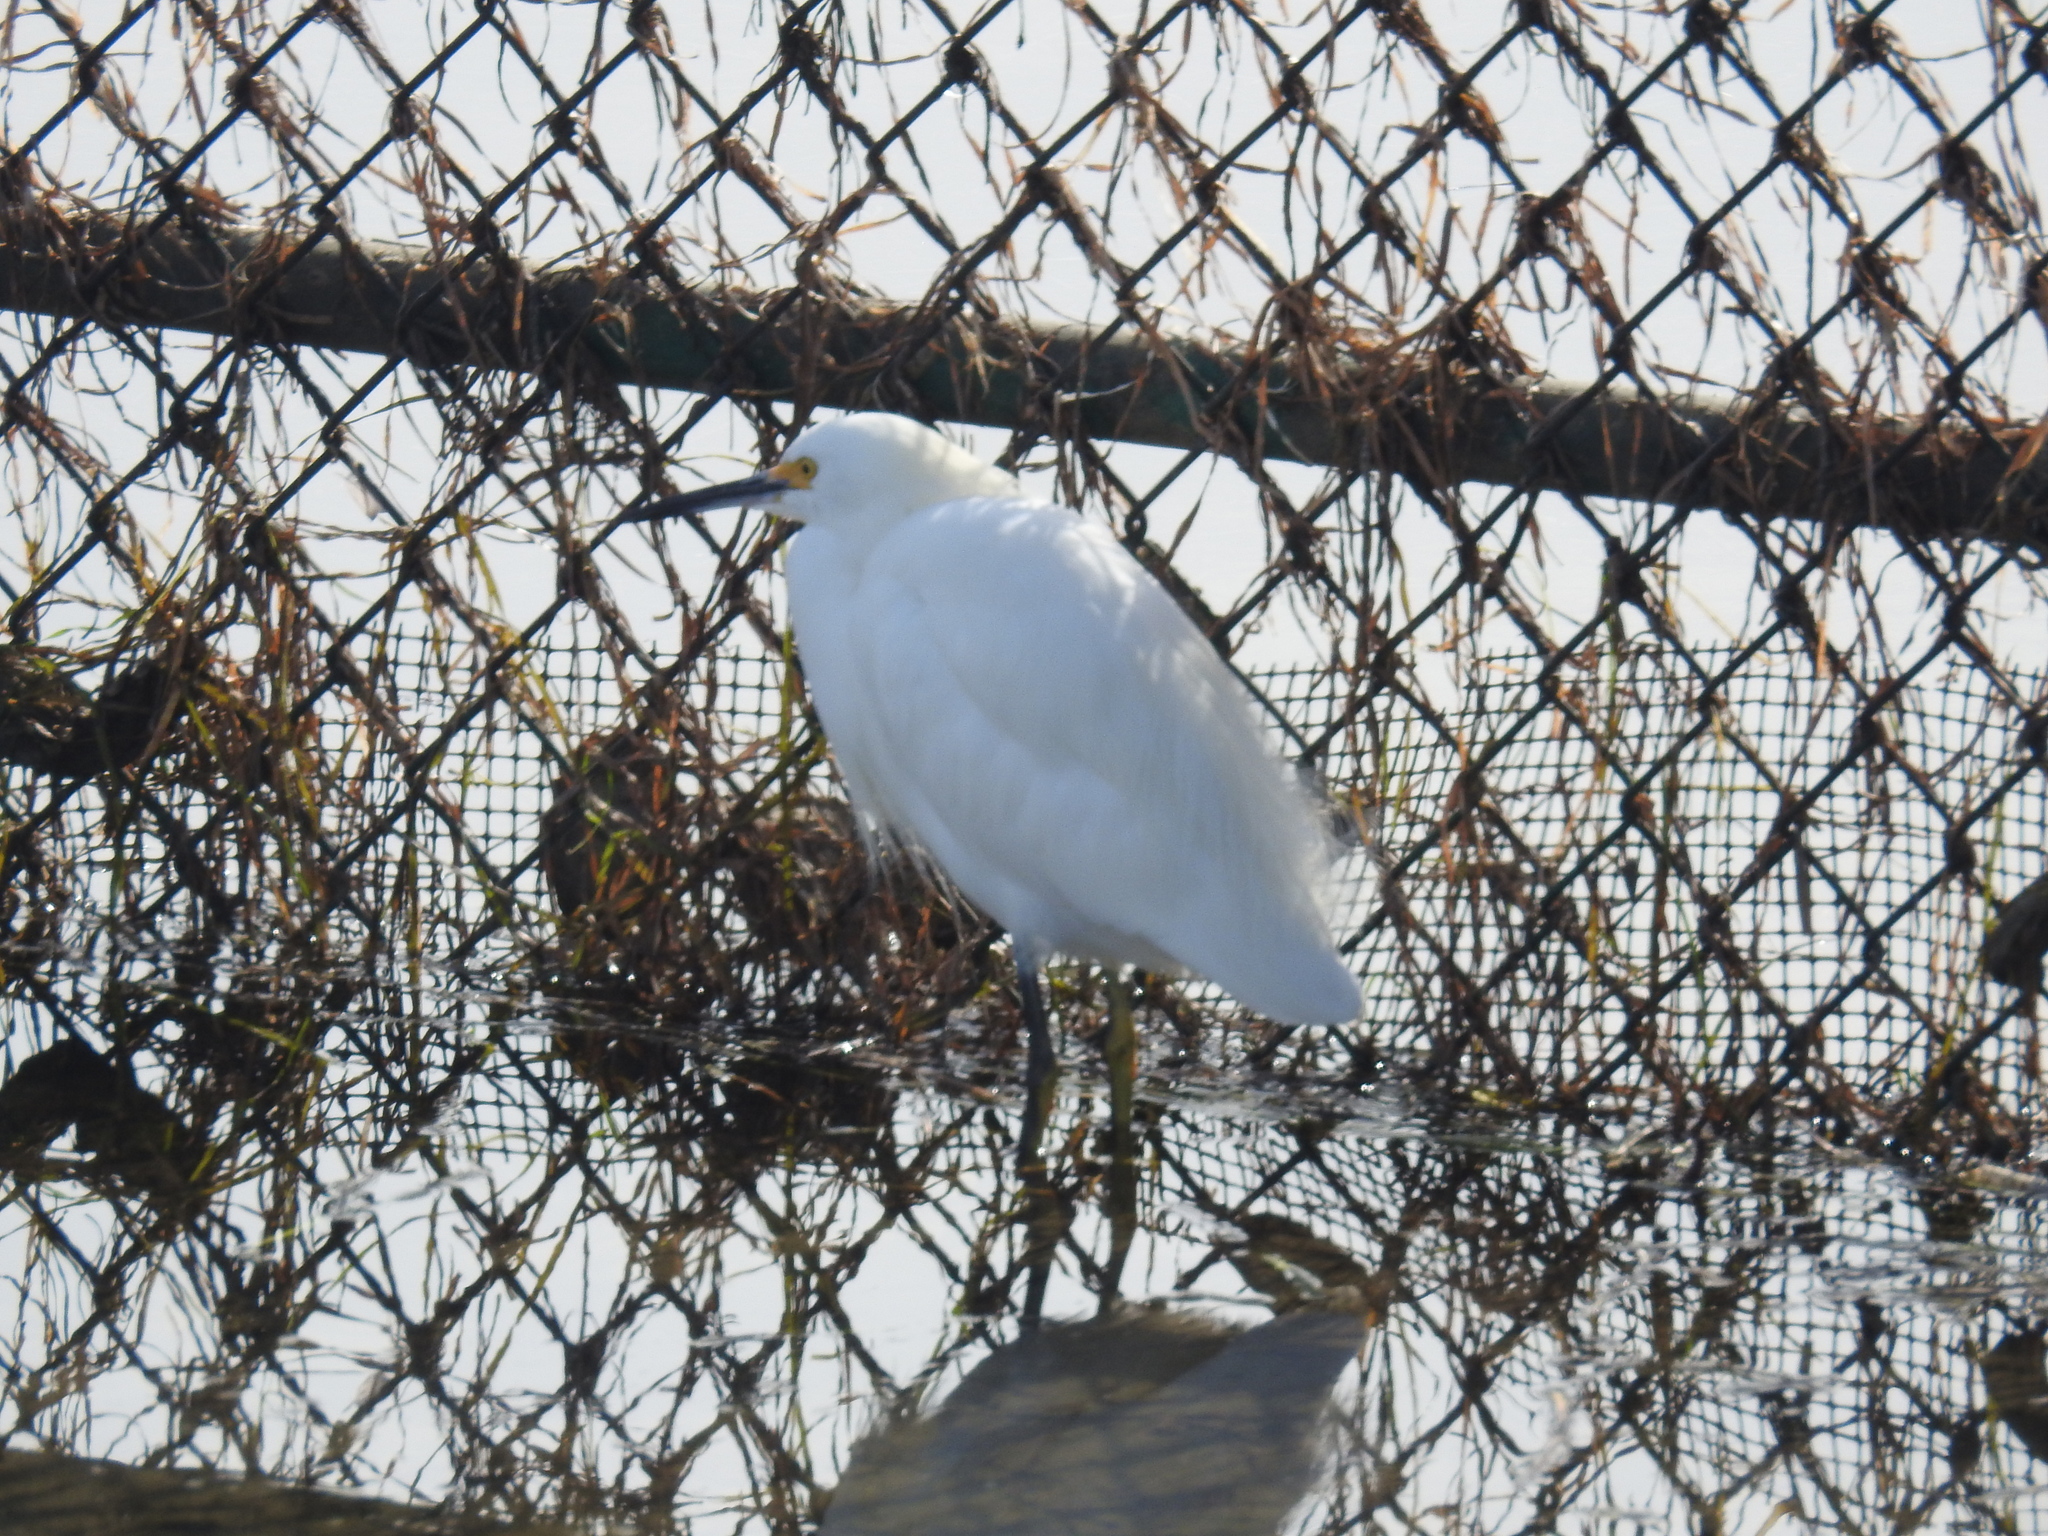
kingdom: Animalia
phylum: Chordata
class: Aves
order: Pelecaniformes
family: Ardeidae
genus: Egretta
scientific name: Egretta thula
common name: Snowy egret
